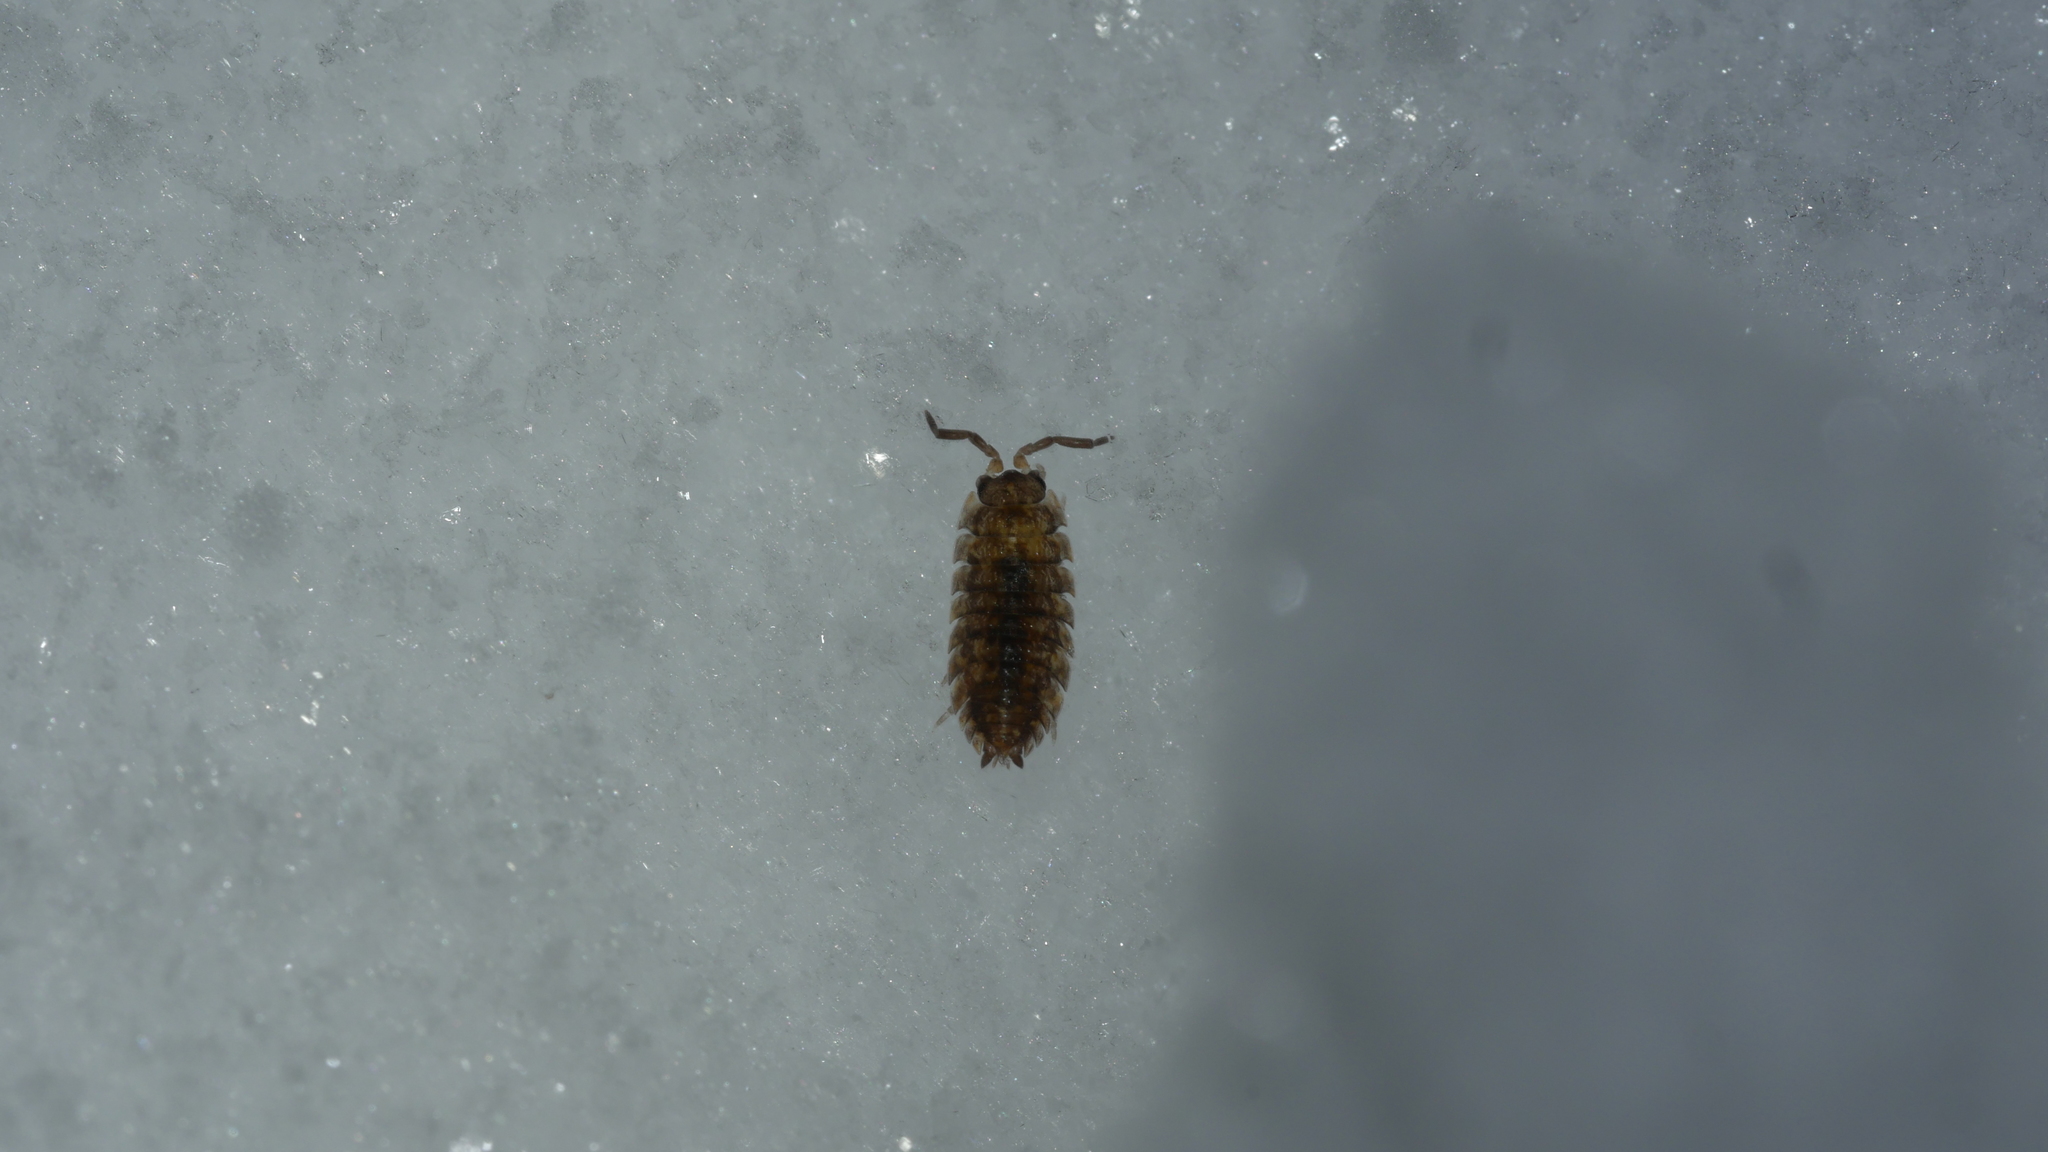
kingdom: Animalia
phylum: Arthropoda
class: Malacostraca
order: Isopoda
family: Porcellionidae
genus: Porcellio
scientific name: Porcellio scaber
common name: Common rough woodlouse
